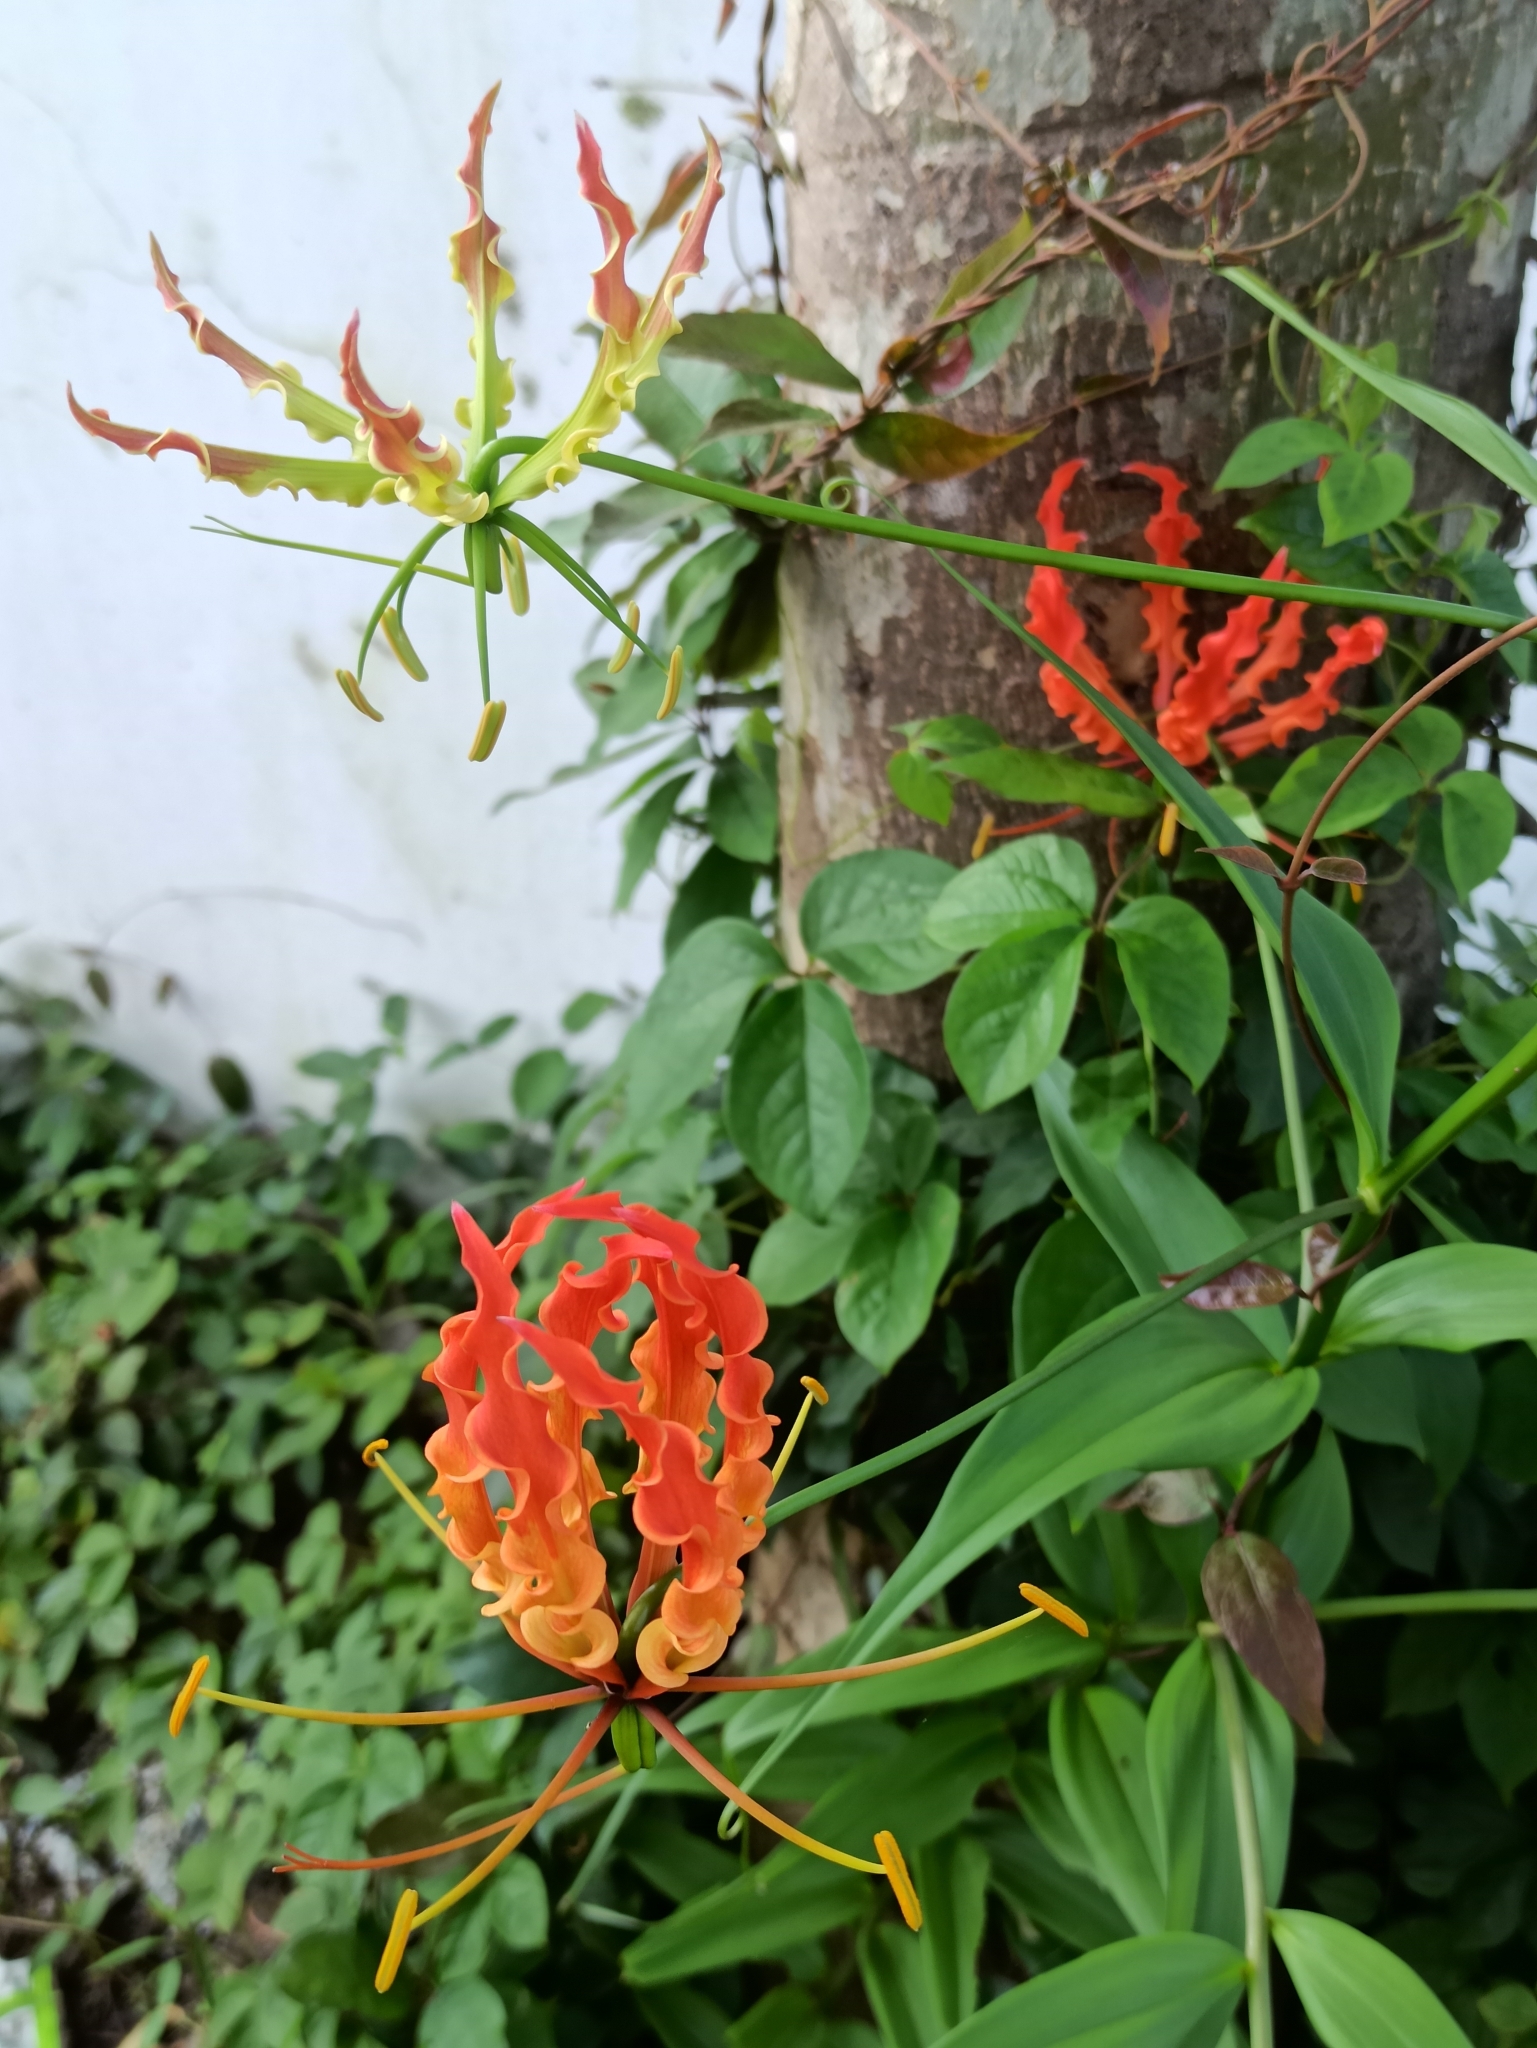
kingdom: Plantae
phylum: Tracheophyta
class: Liliopsida
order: Liliales
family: Colchicaceae
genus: Gloriosa
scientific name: Gloriosa superba
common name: Flame lily
